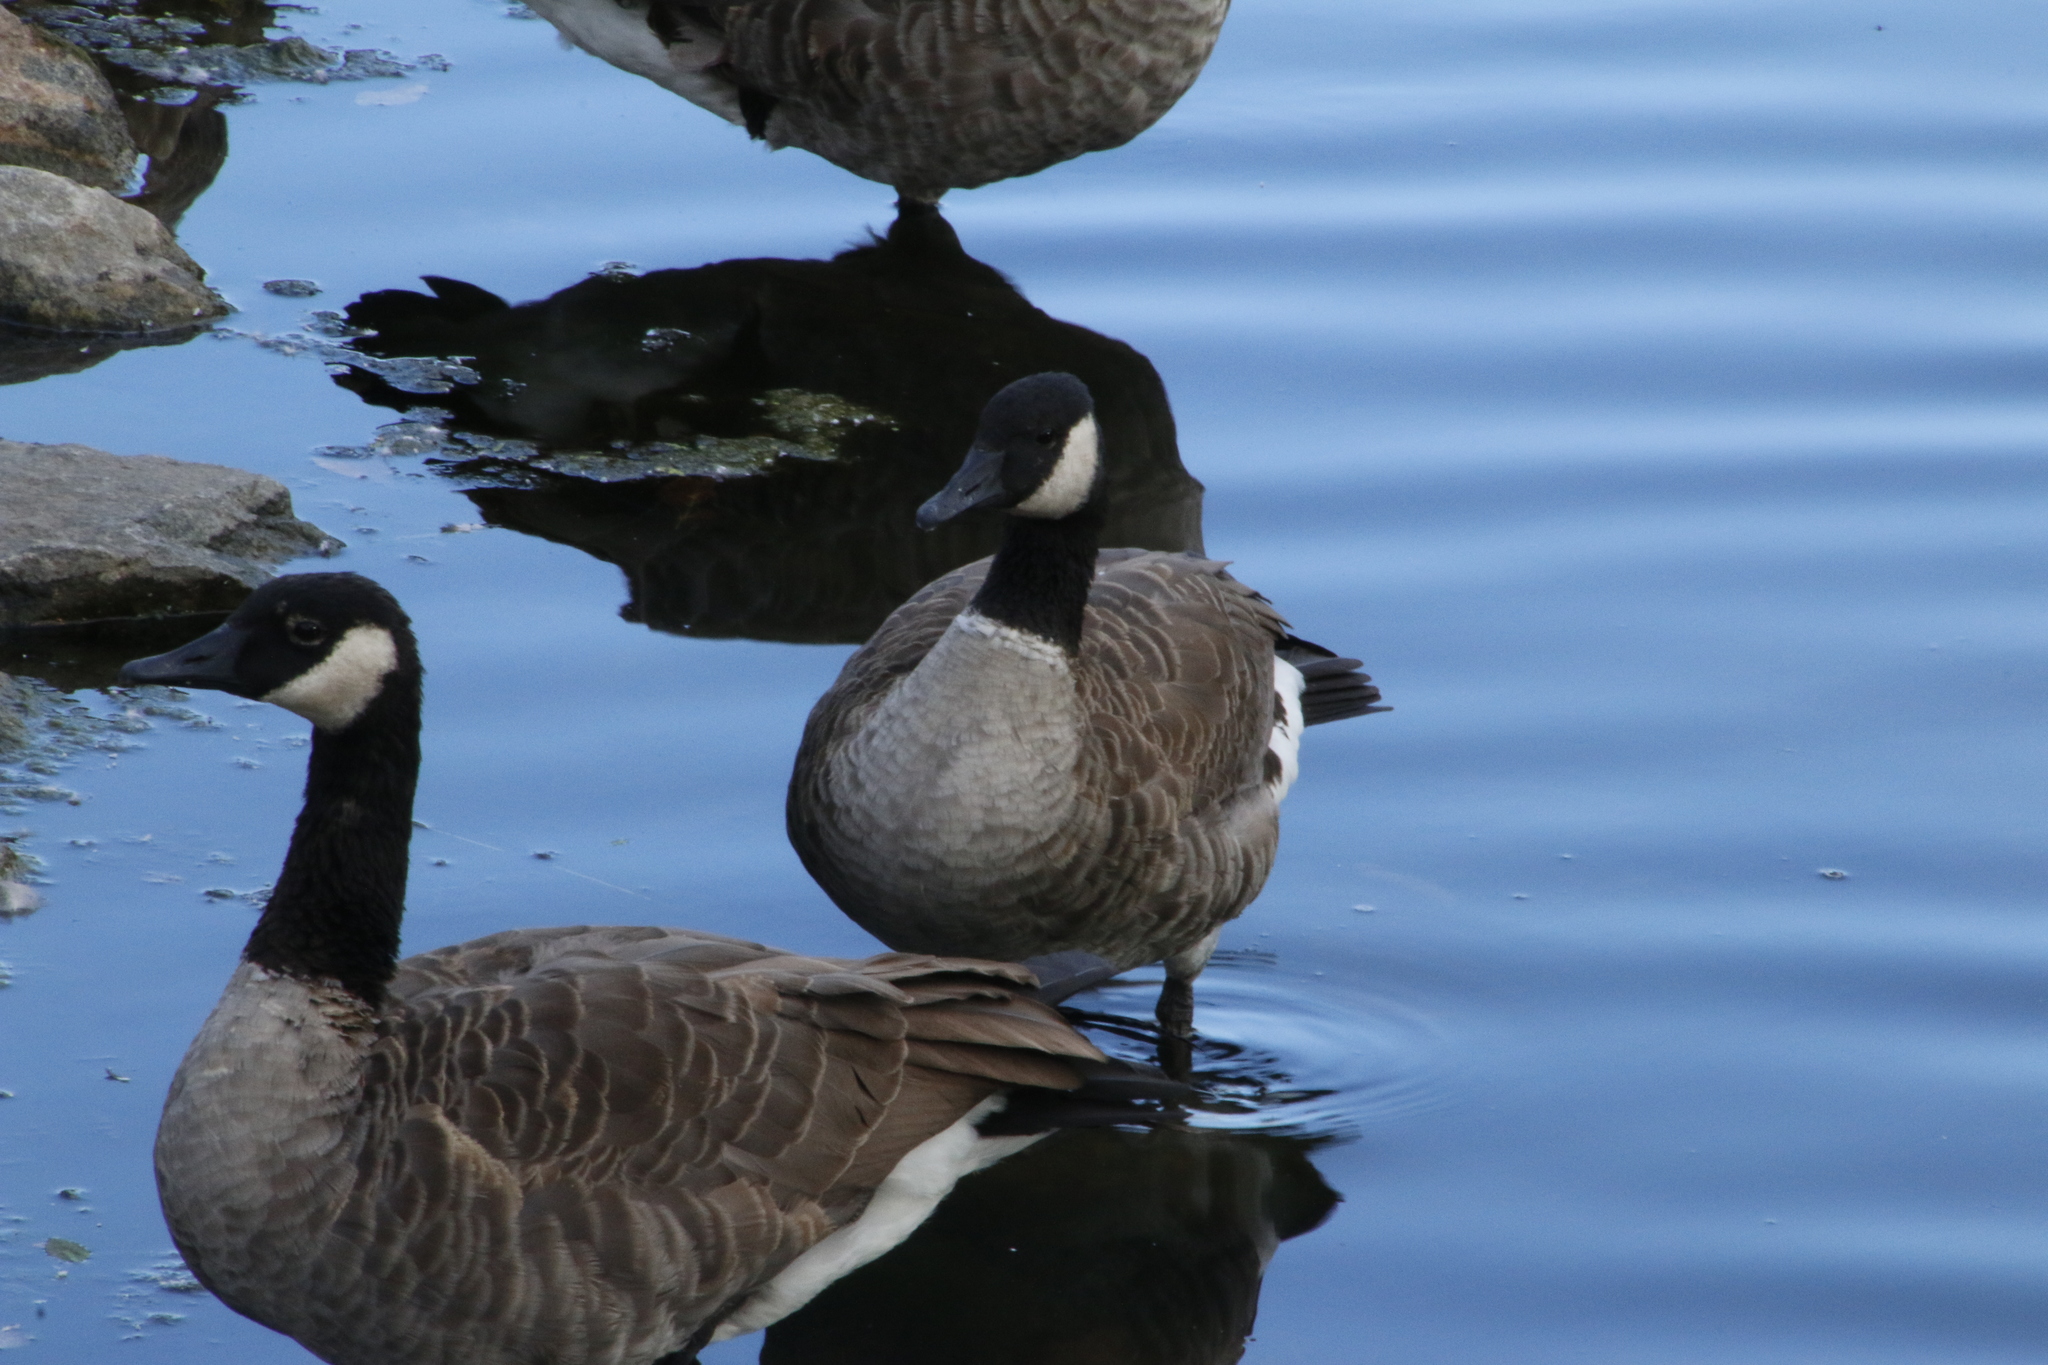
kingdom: Animalia
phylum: Chordata
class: Aves
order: Anseriformes
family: Anatidae
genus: Branta
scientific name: Branta canadensis
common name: Canada goose
